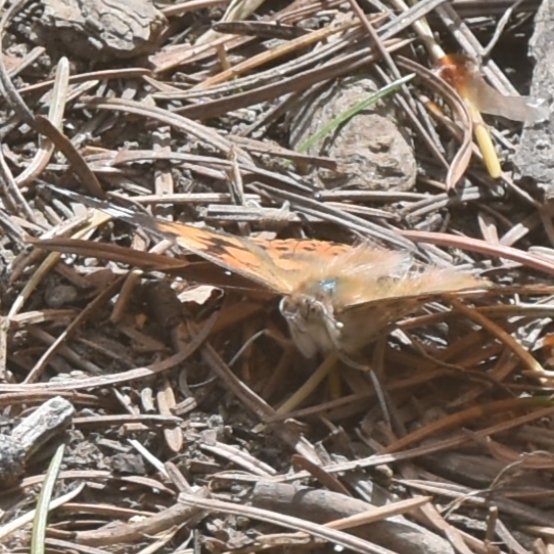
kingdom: Animalia
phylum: Arthropoda
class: Insecta
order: Lepidoptera
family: Nymphalidae
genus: Vanessa
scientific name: Vanessa cardui
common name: Painted lady
